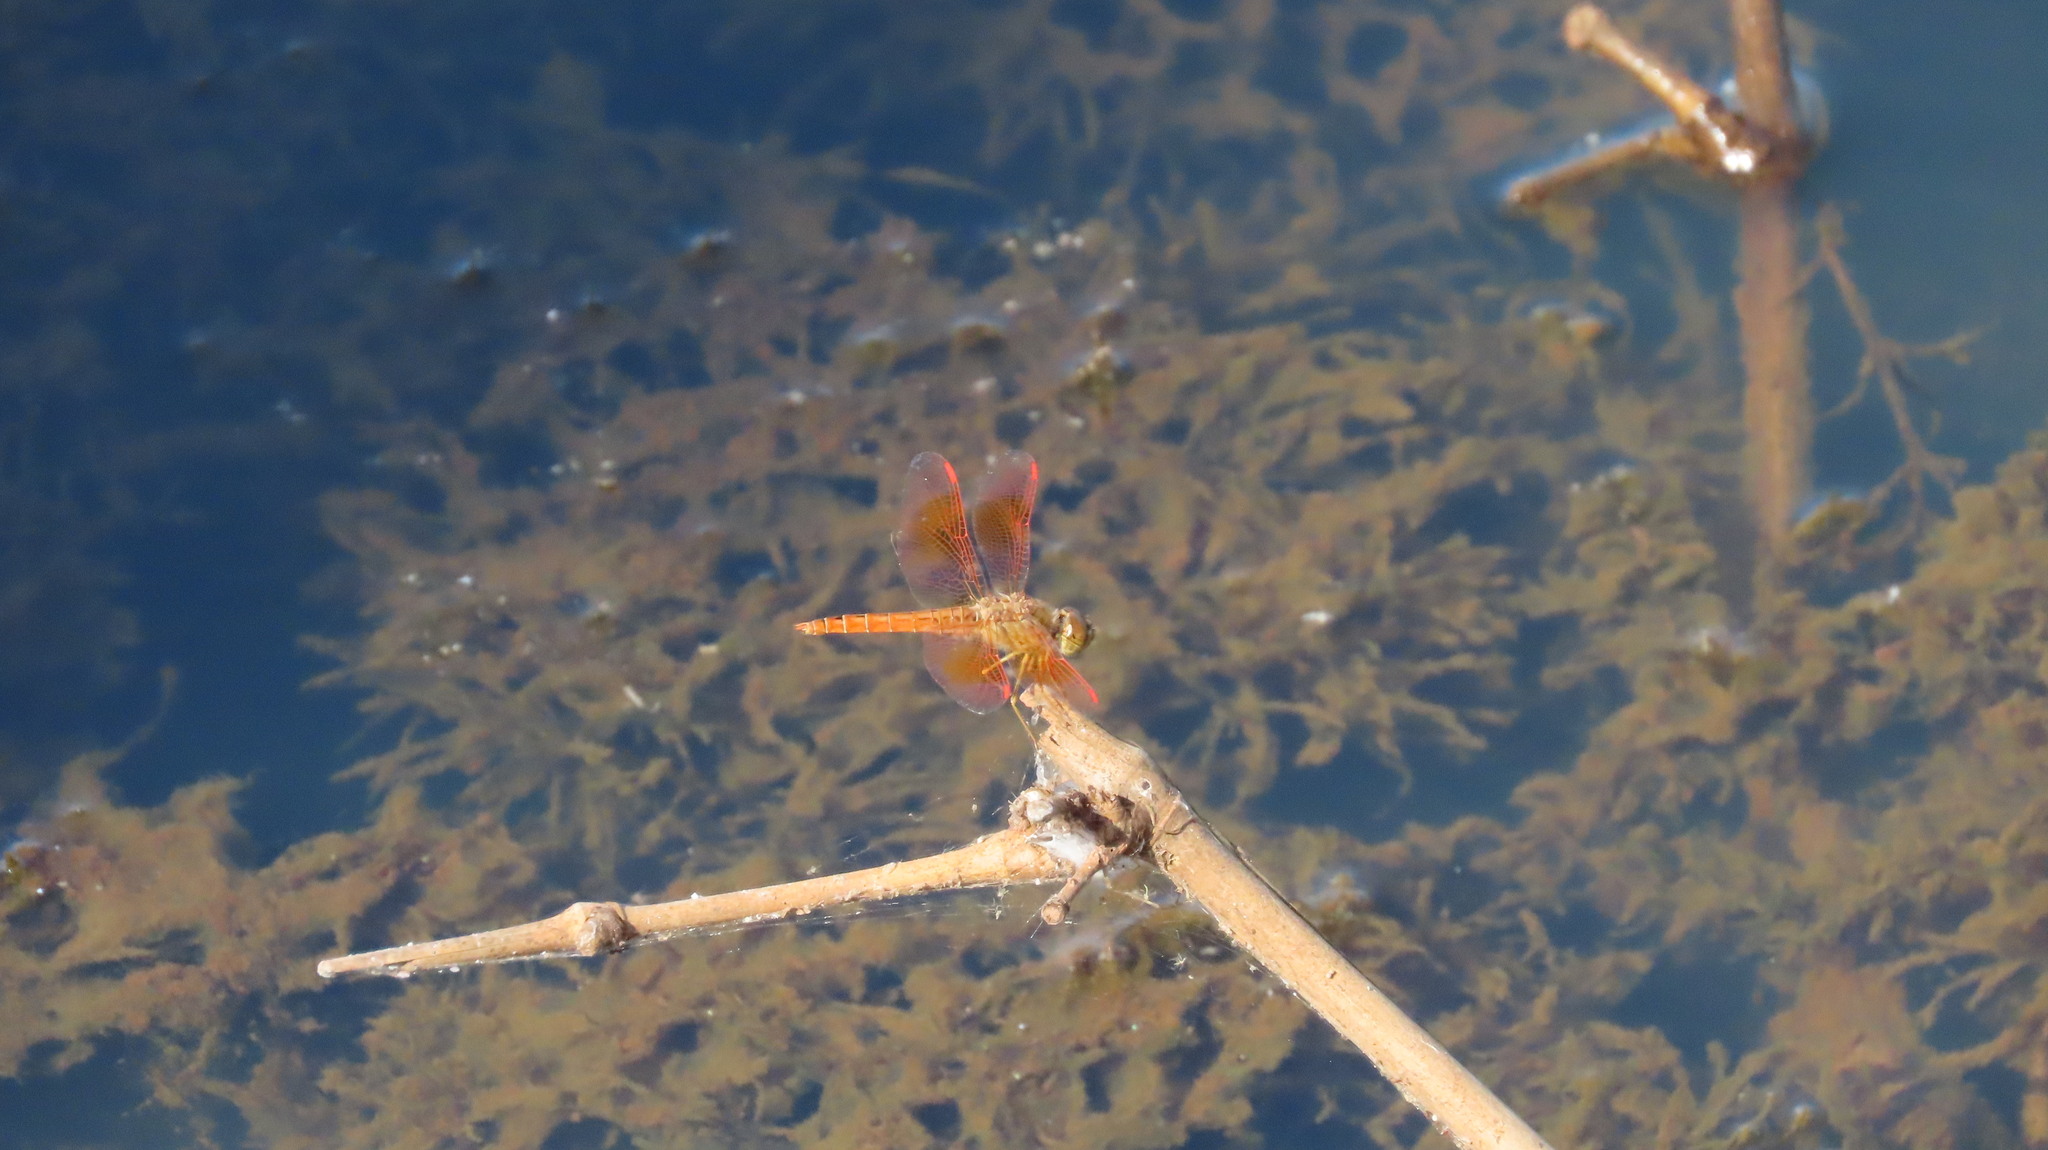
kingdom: Animalia
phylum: Arthropoda
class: Insecta
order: Odonata
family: Libellulidae
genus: Brachythemis
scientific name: Brachythemis contaminata
